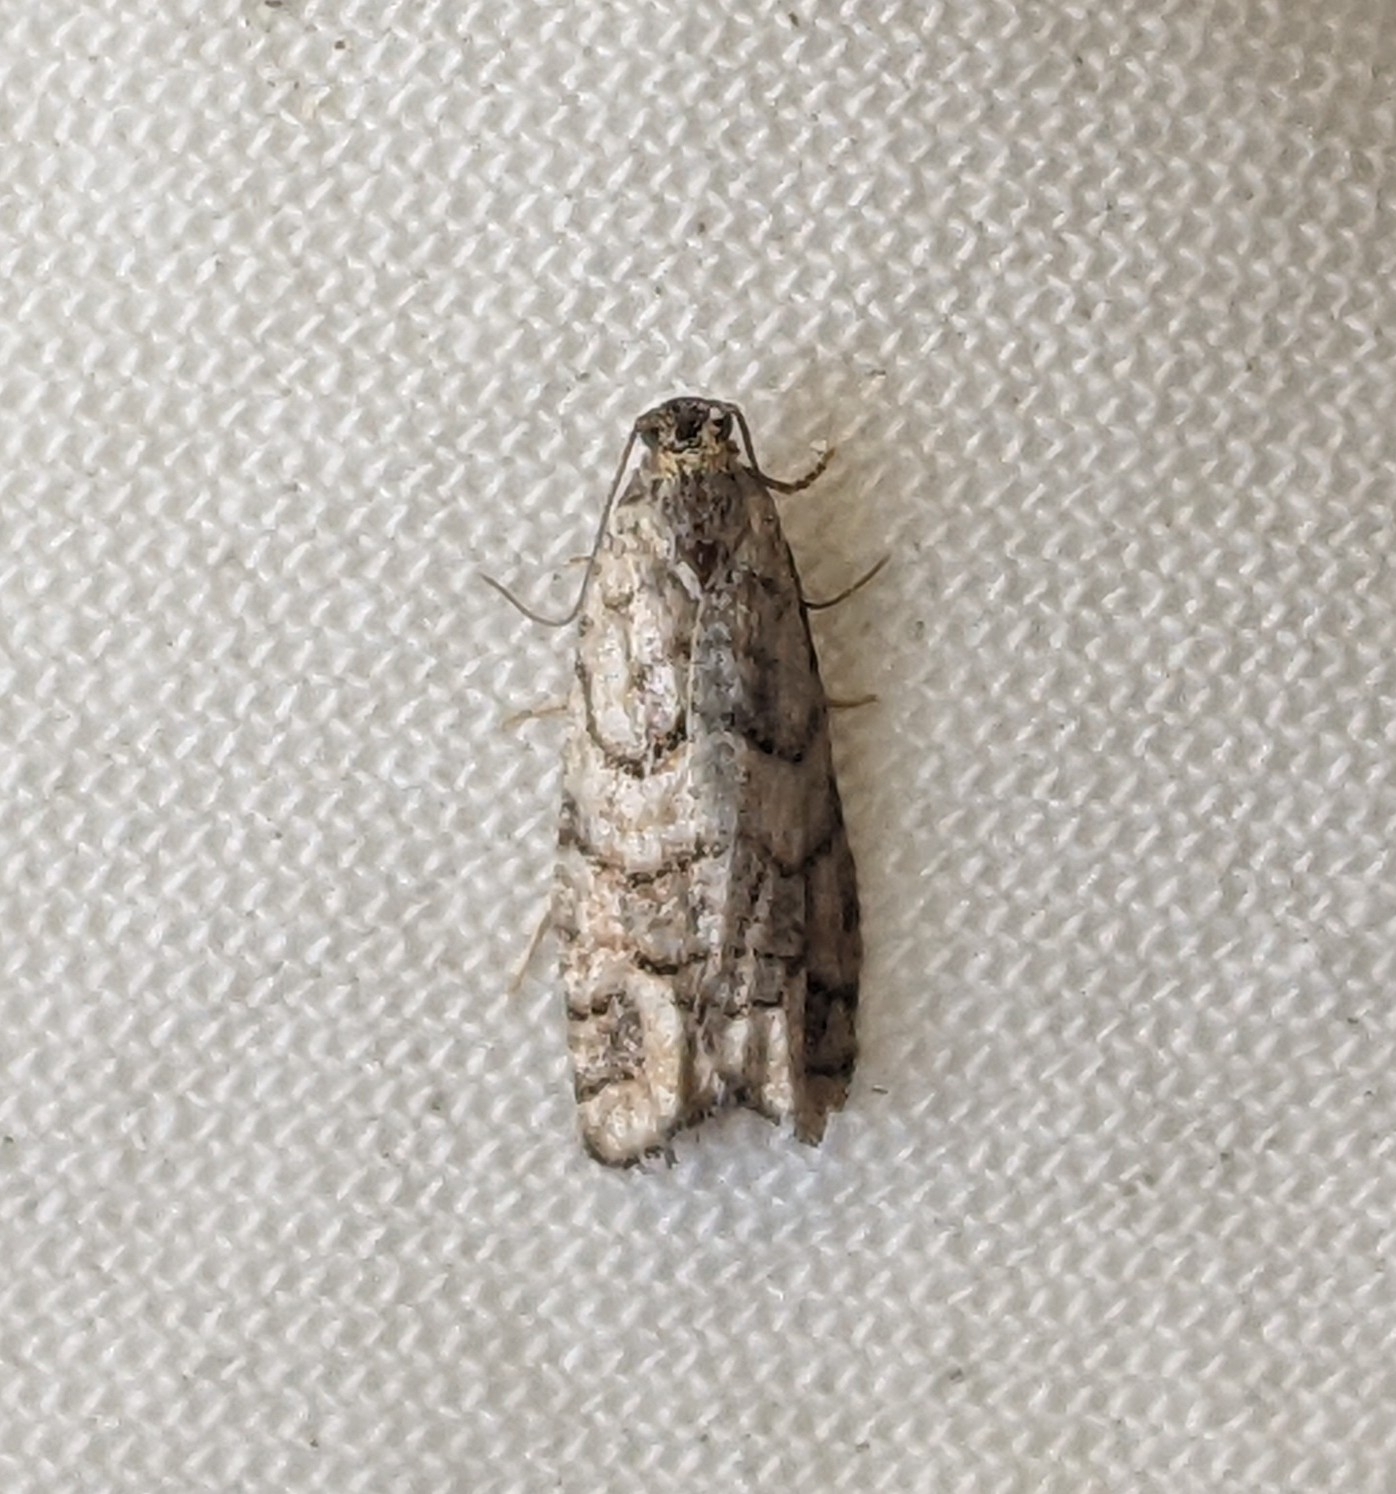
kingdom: Animalia
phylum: Arthropoda
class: Insecta
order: Lepidoptera
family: Tortricidae
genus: Epinotia
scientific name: Epinotia subviridis
